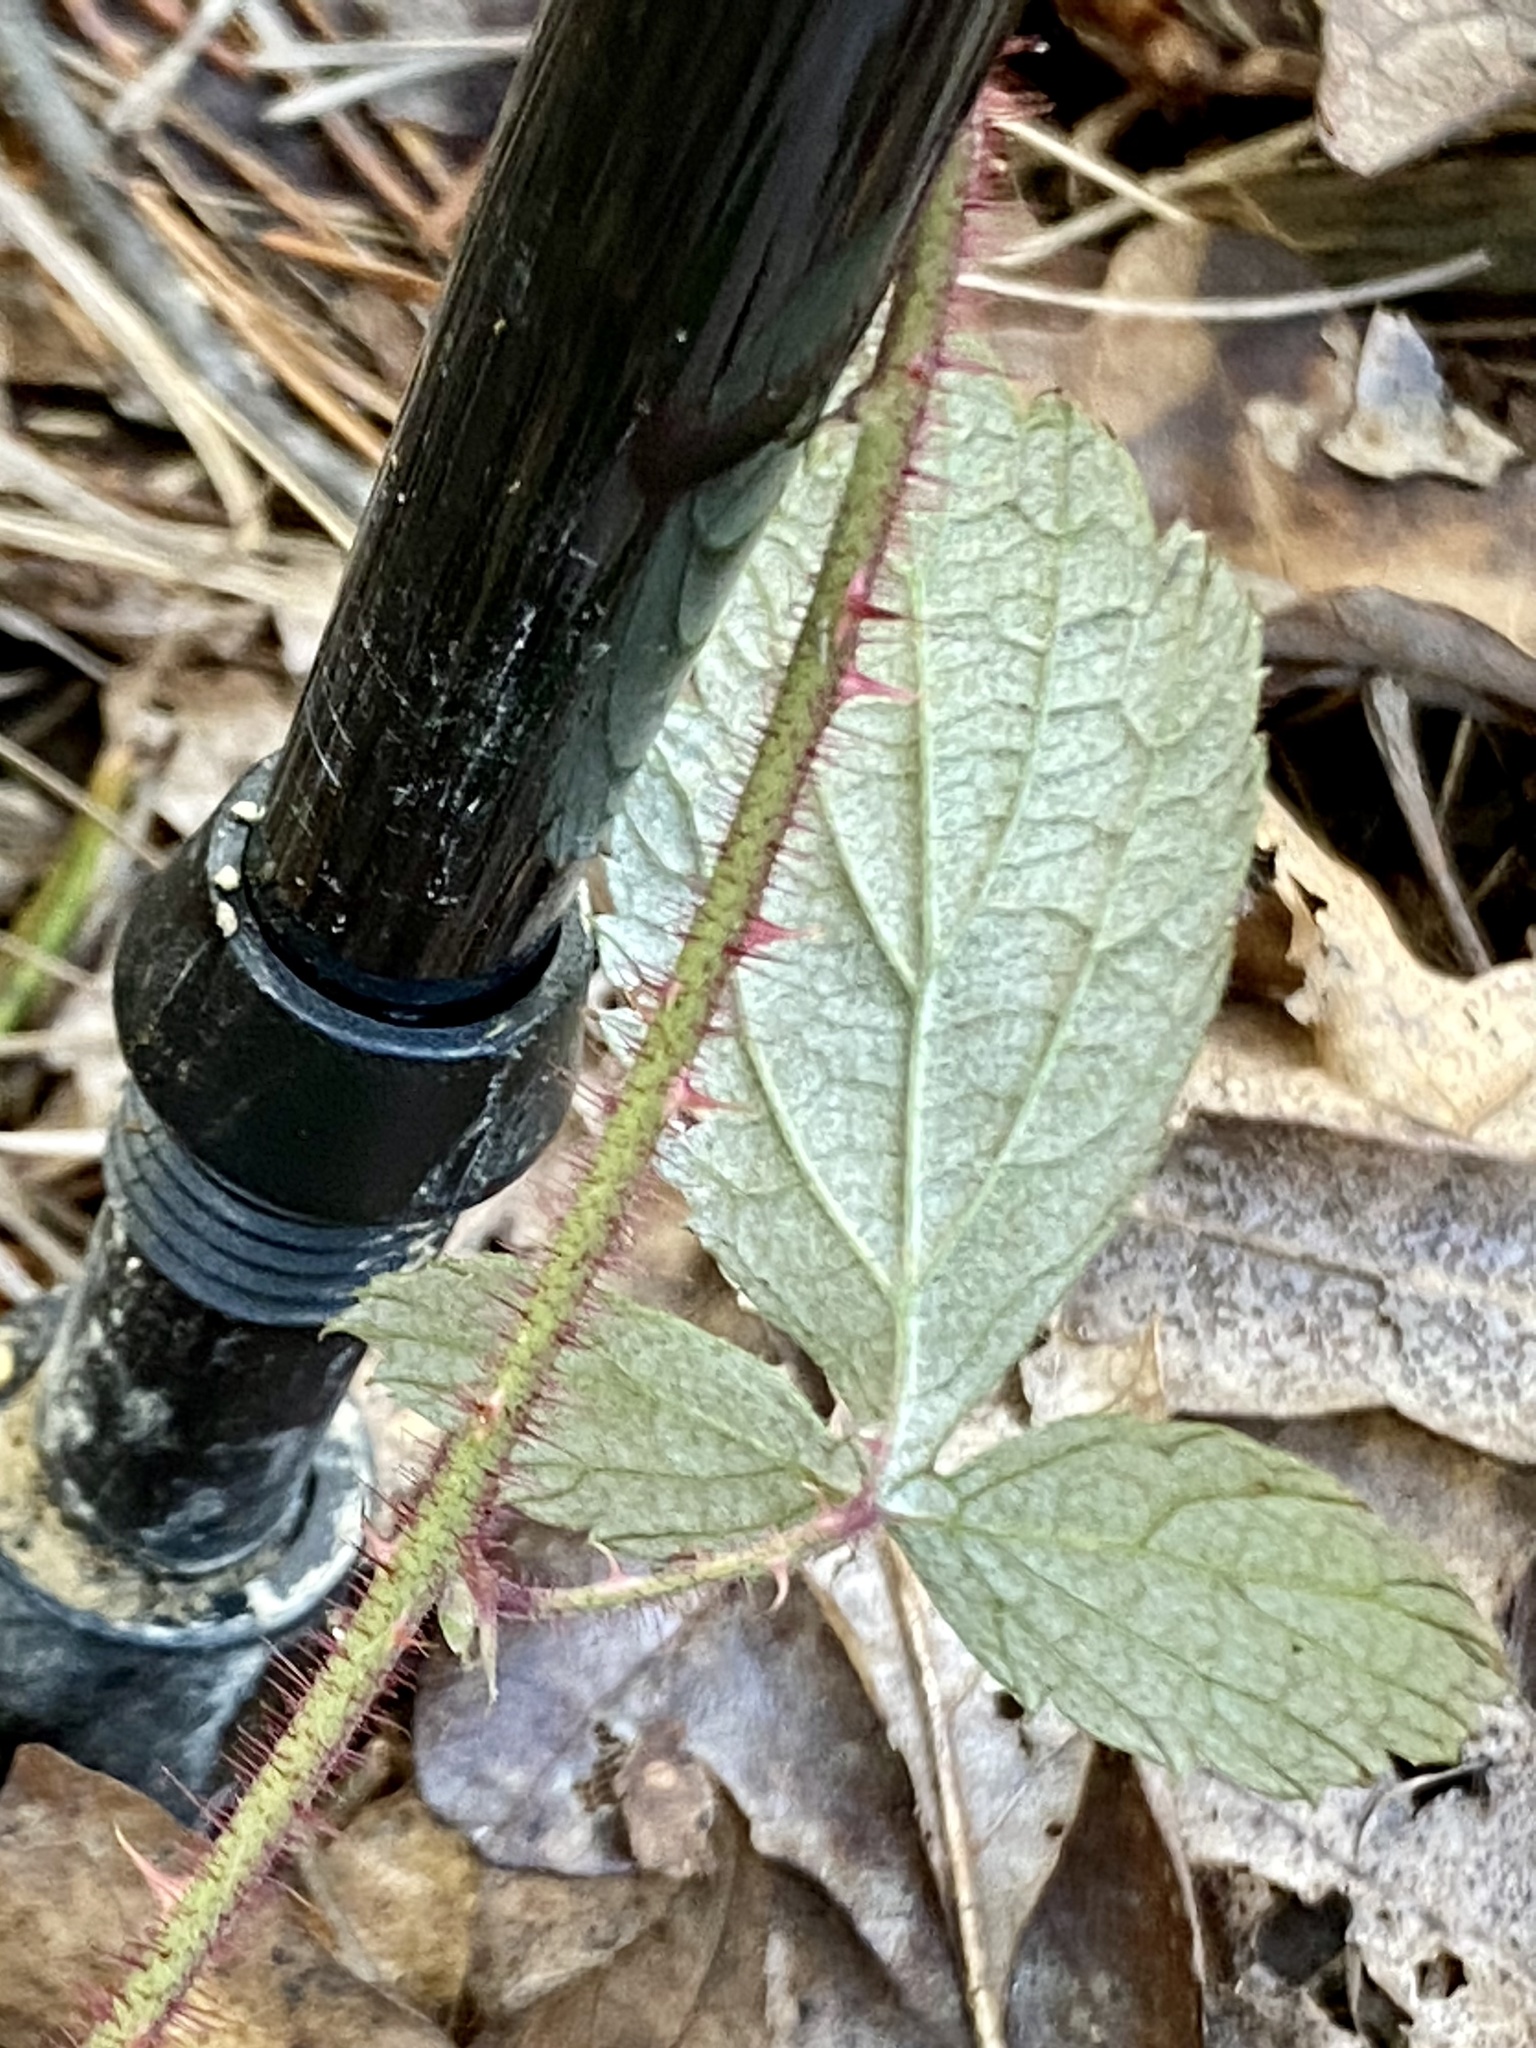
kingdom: Plantae
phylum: Tracheophyta
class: Magnoliopsida
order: Rosales
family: Rosaceae
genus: Rubus
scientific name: Rubus phoenicolasius
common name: Japanese wineberry
